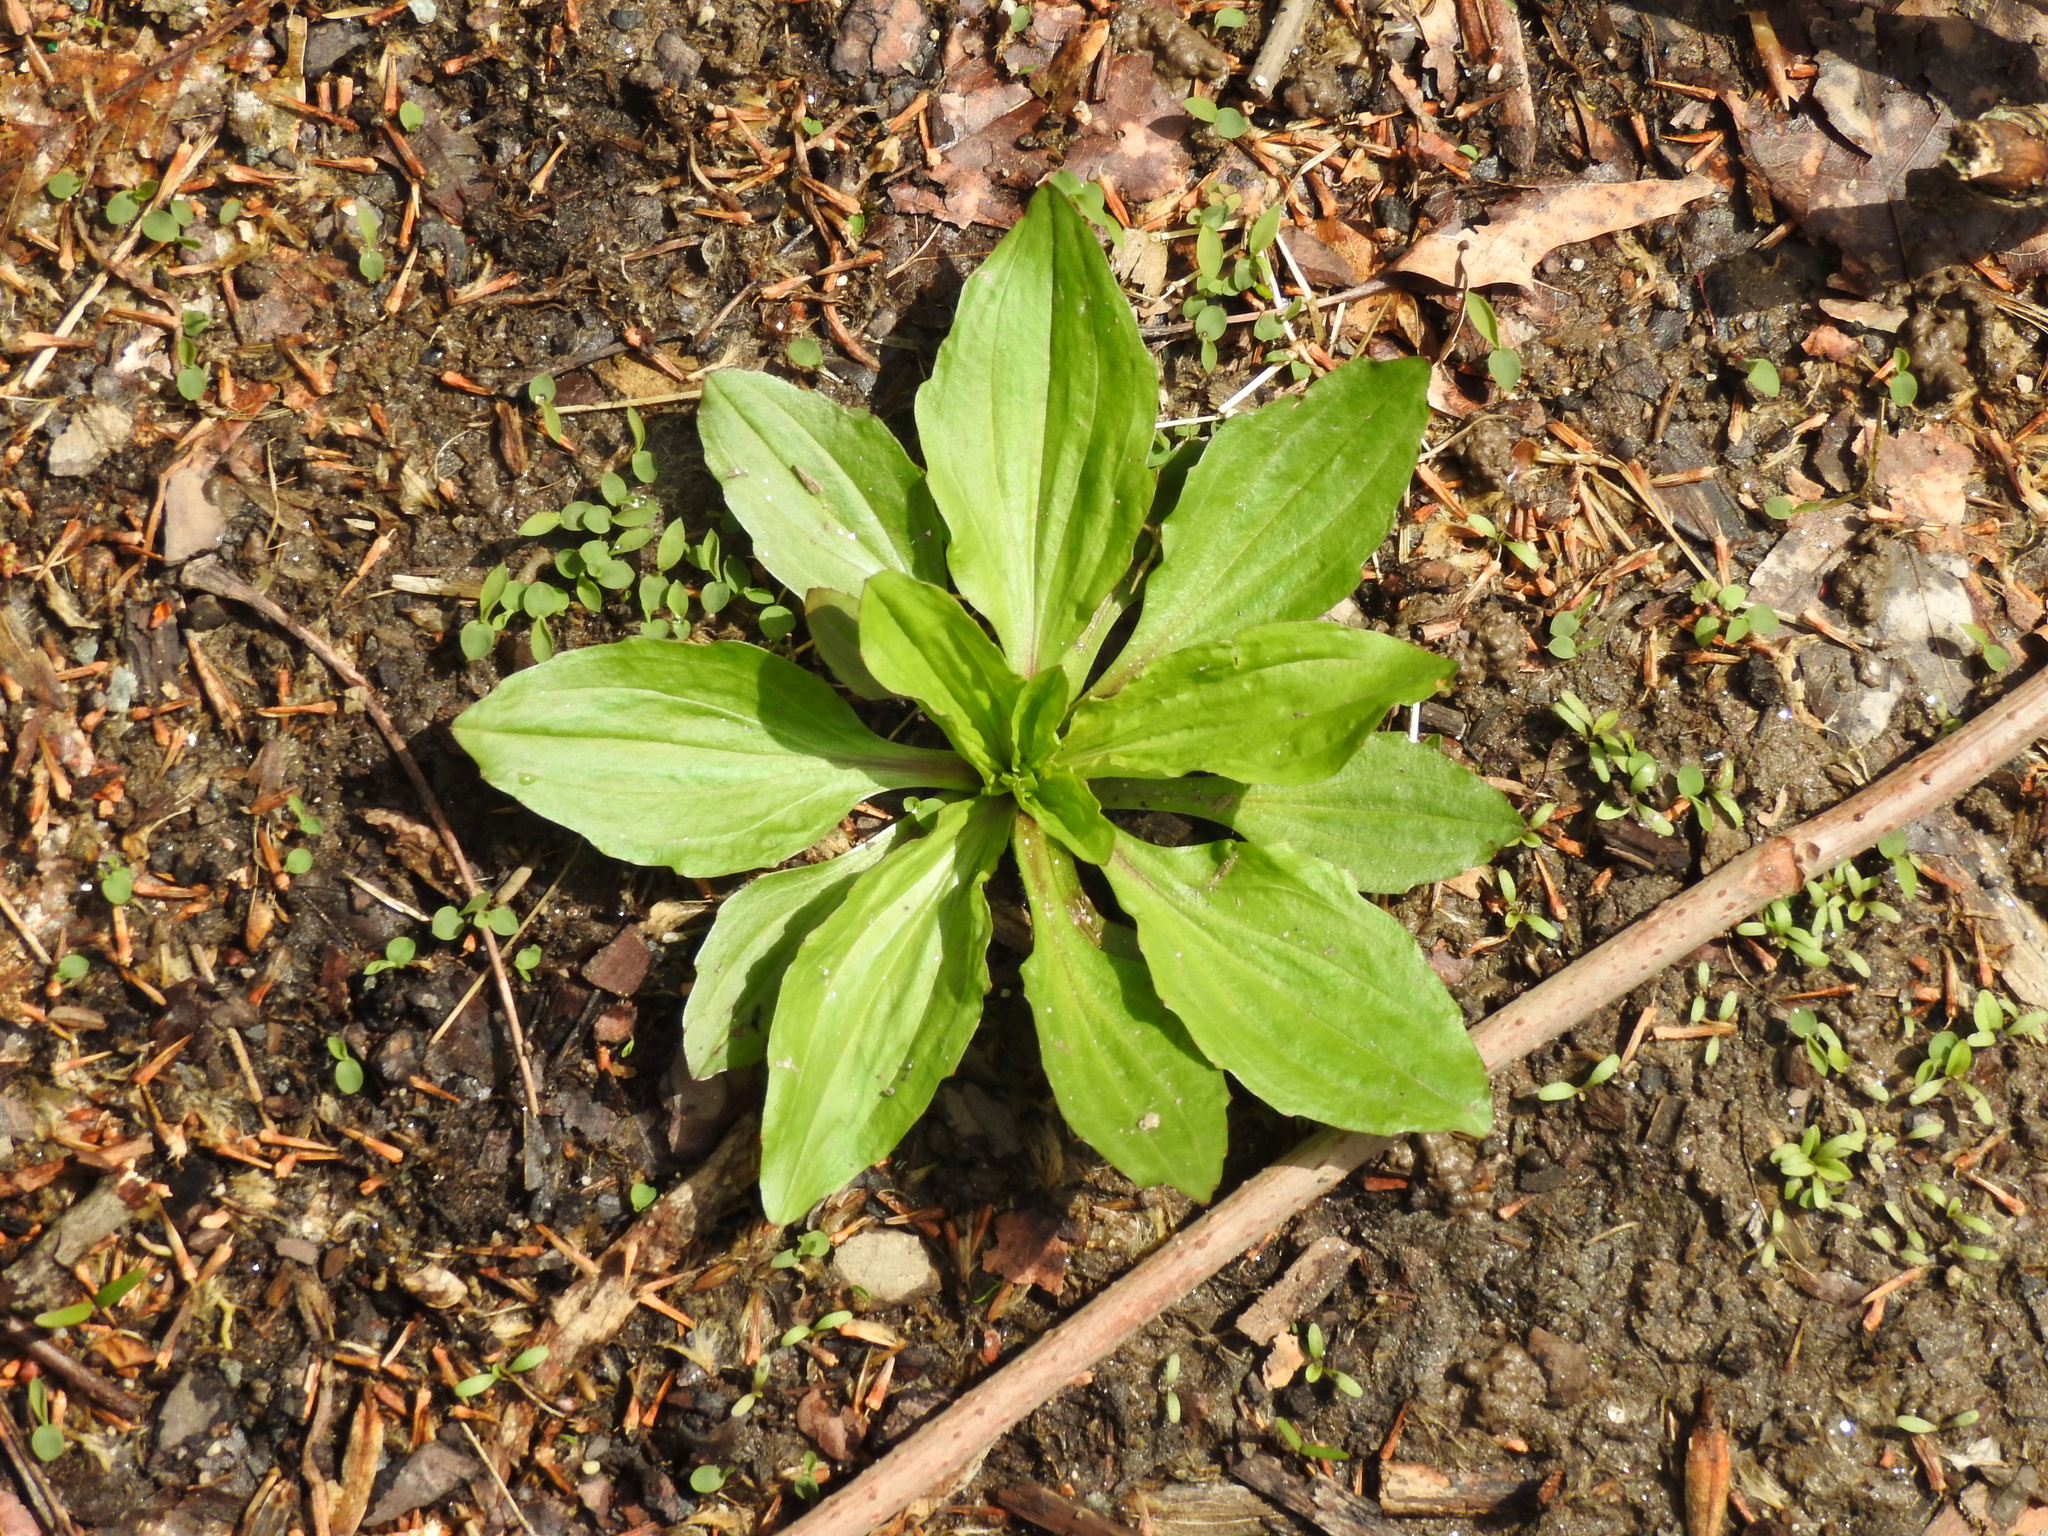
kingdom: Plantae
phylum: Tracheophyta
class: Magnoliopsida
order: Lamiales
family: Plantaginaceae
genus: Plantago
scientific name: Plantago rugelii
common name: American plantain
